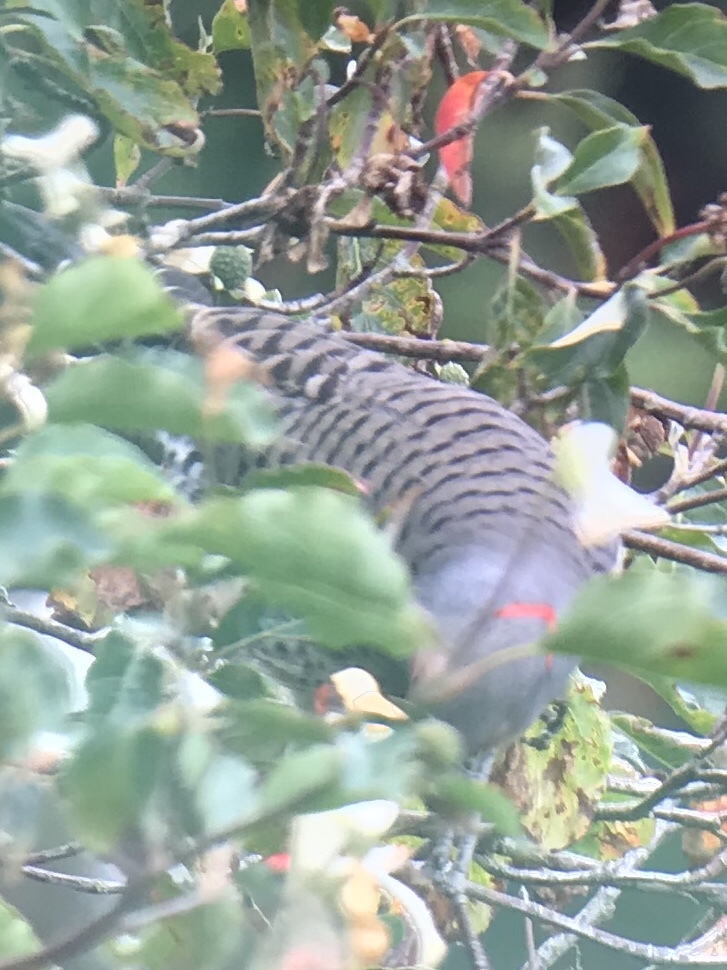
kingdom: Animalia
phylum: Chordata
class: Aves
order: Piciformes
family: Picidae
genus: Colaptes
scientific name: Colaptes
